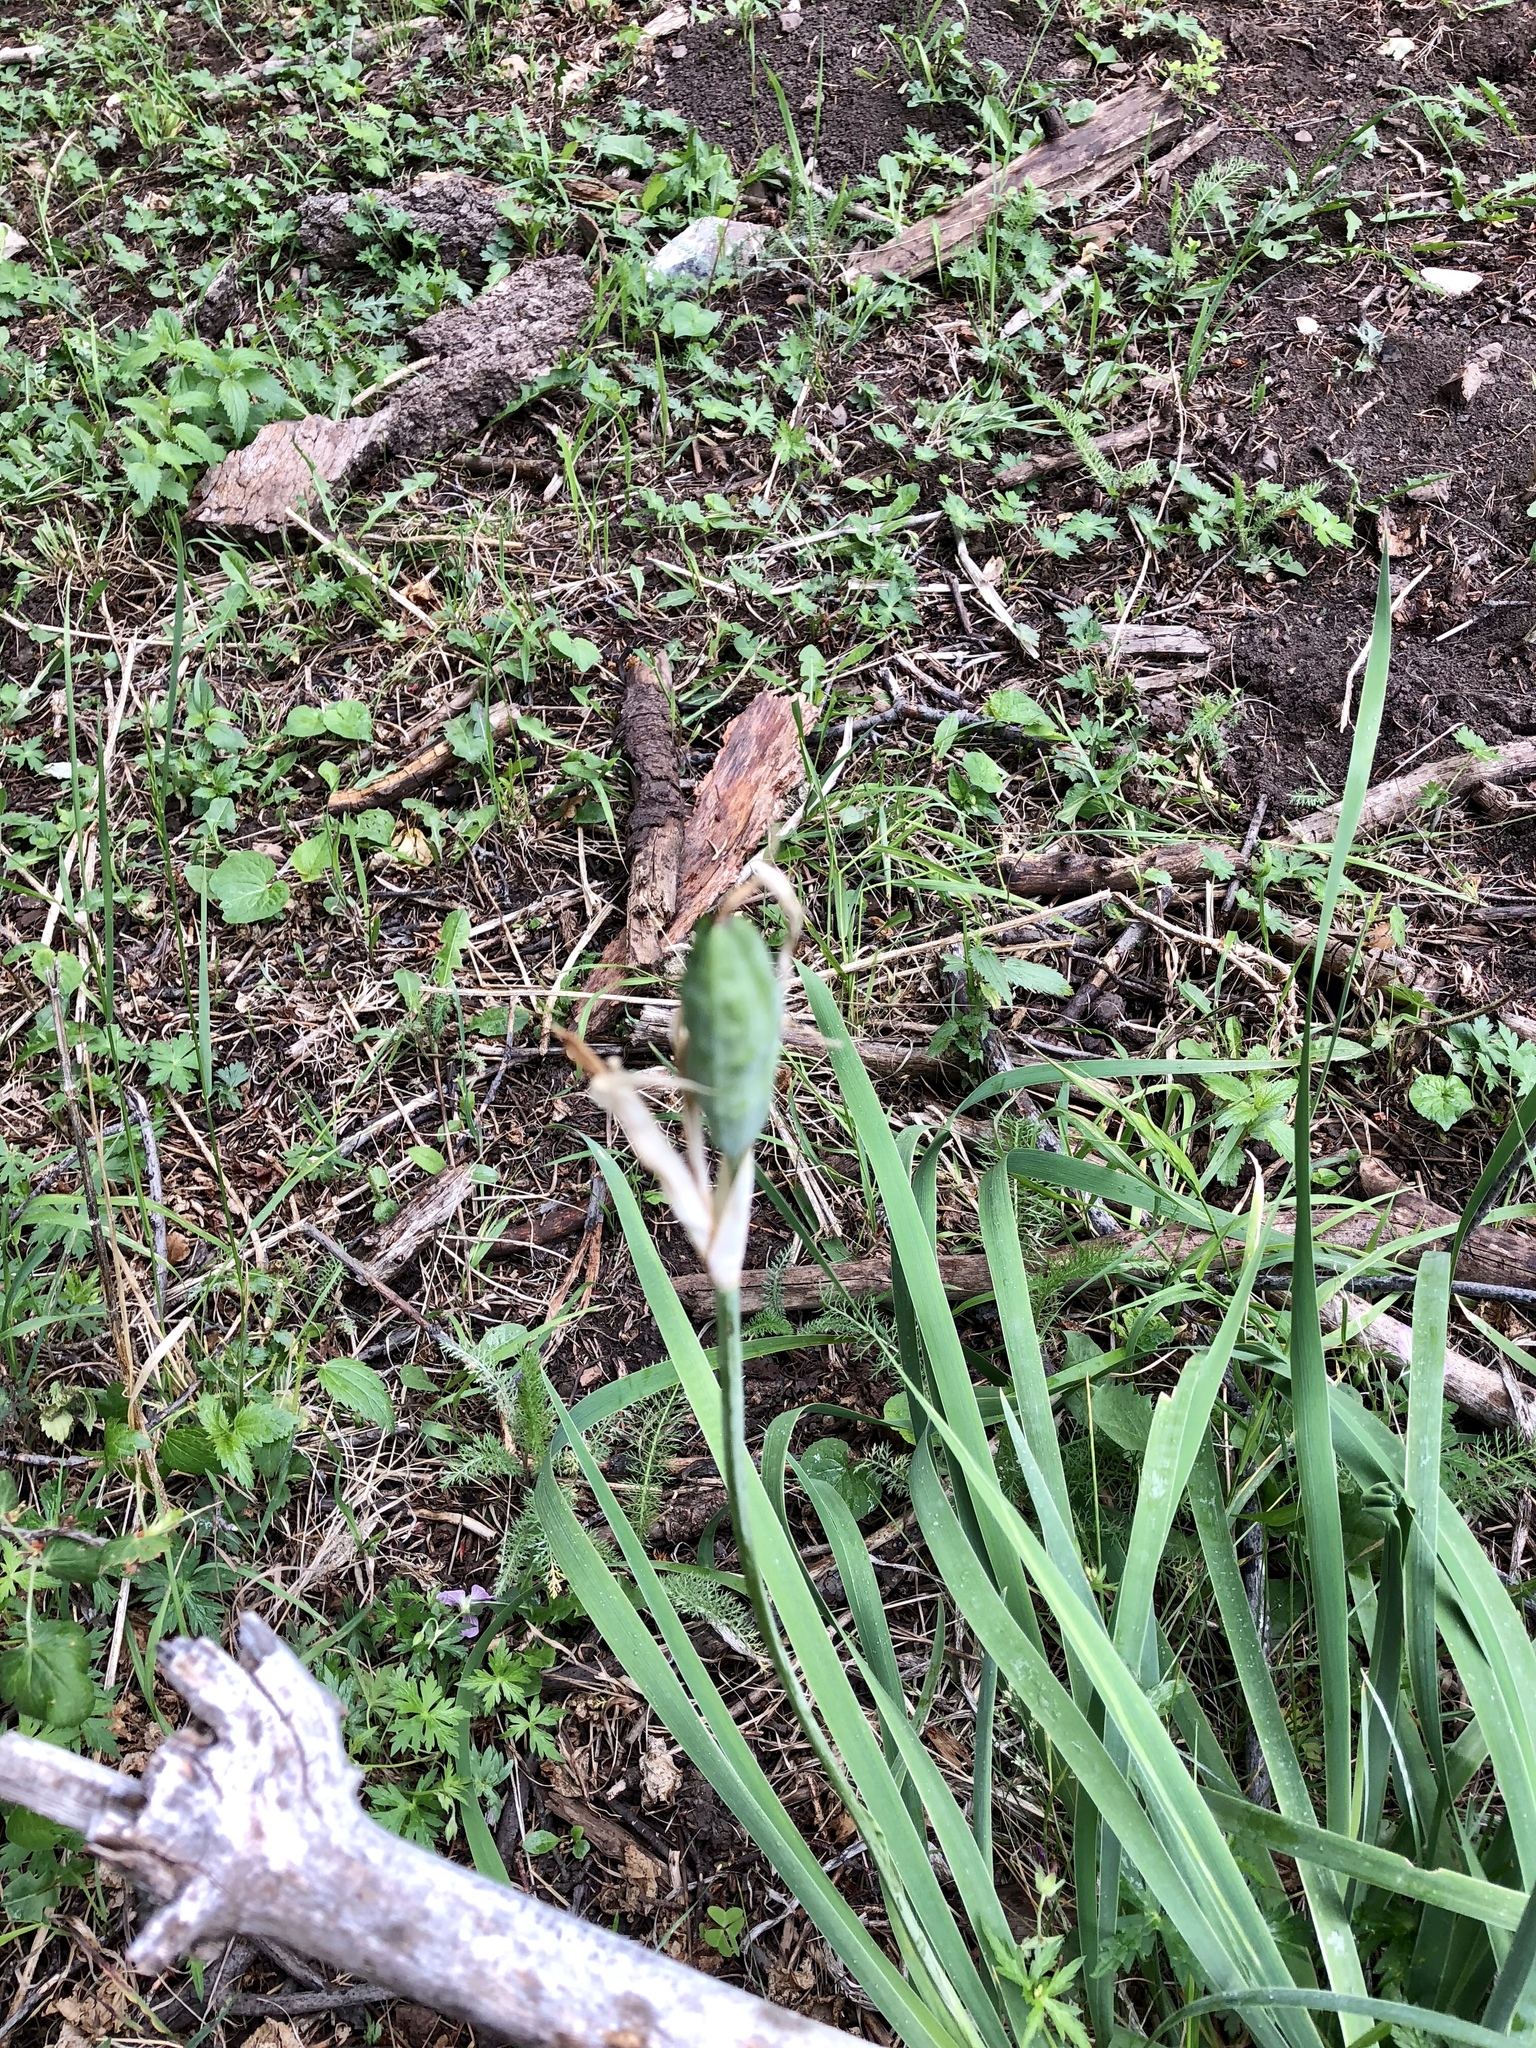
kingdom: Plantae
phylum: Tracheophyta
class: Liliopsida
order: Asparagales
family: Iridaceae
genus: Iris
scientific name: Iris missouriensis
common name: Rocky mountain iris
